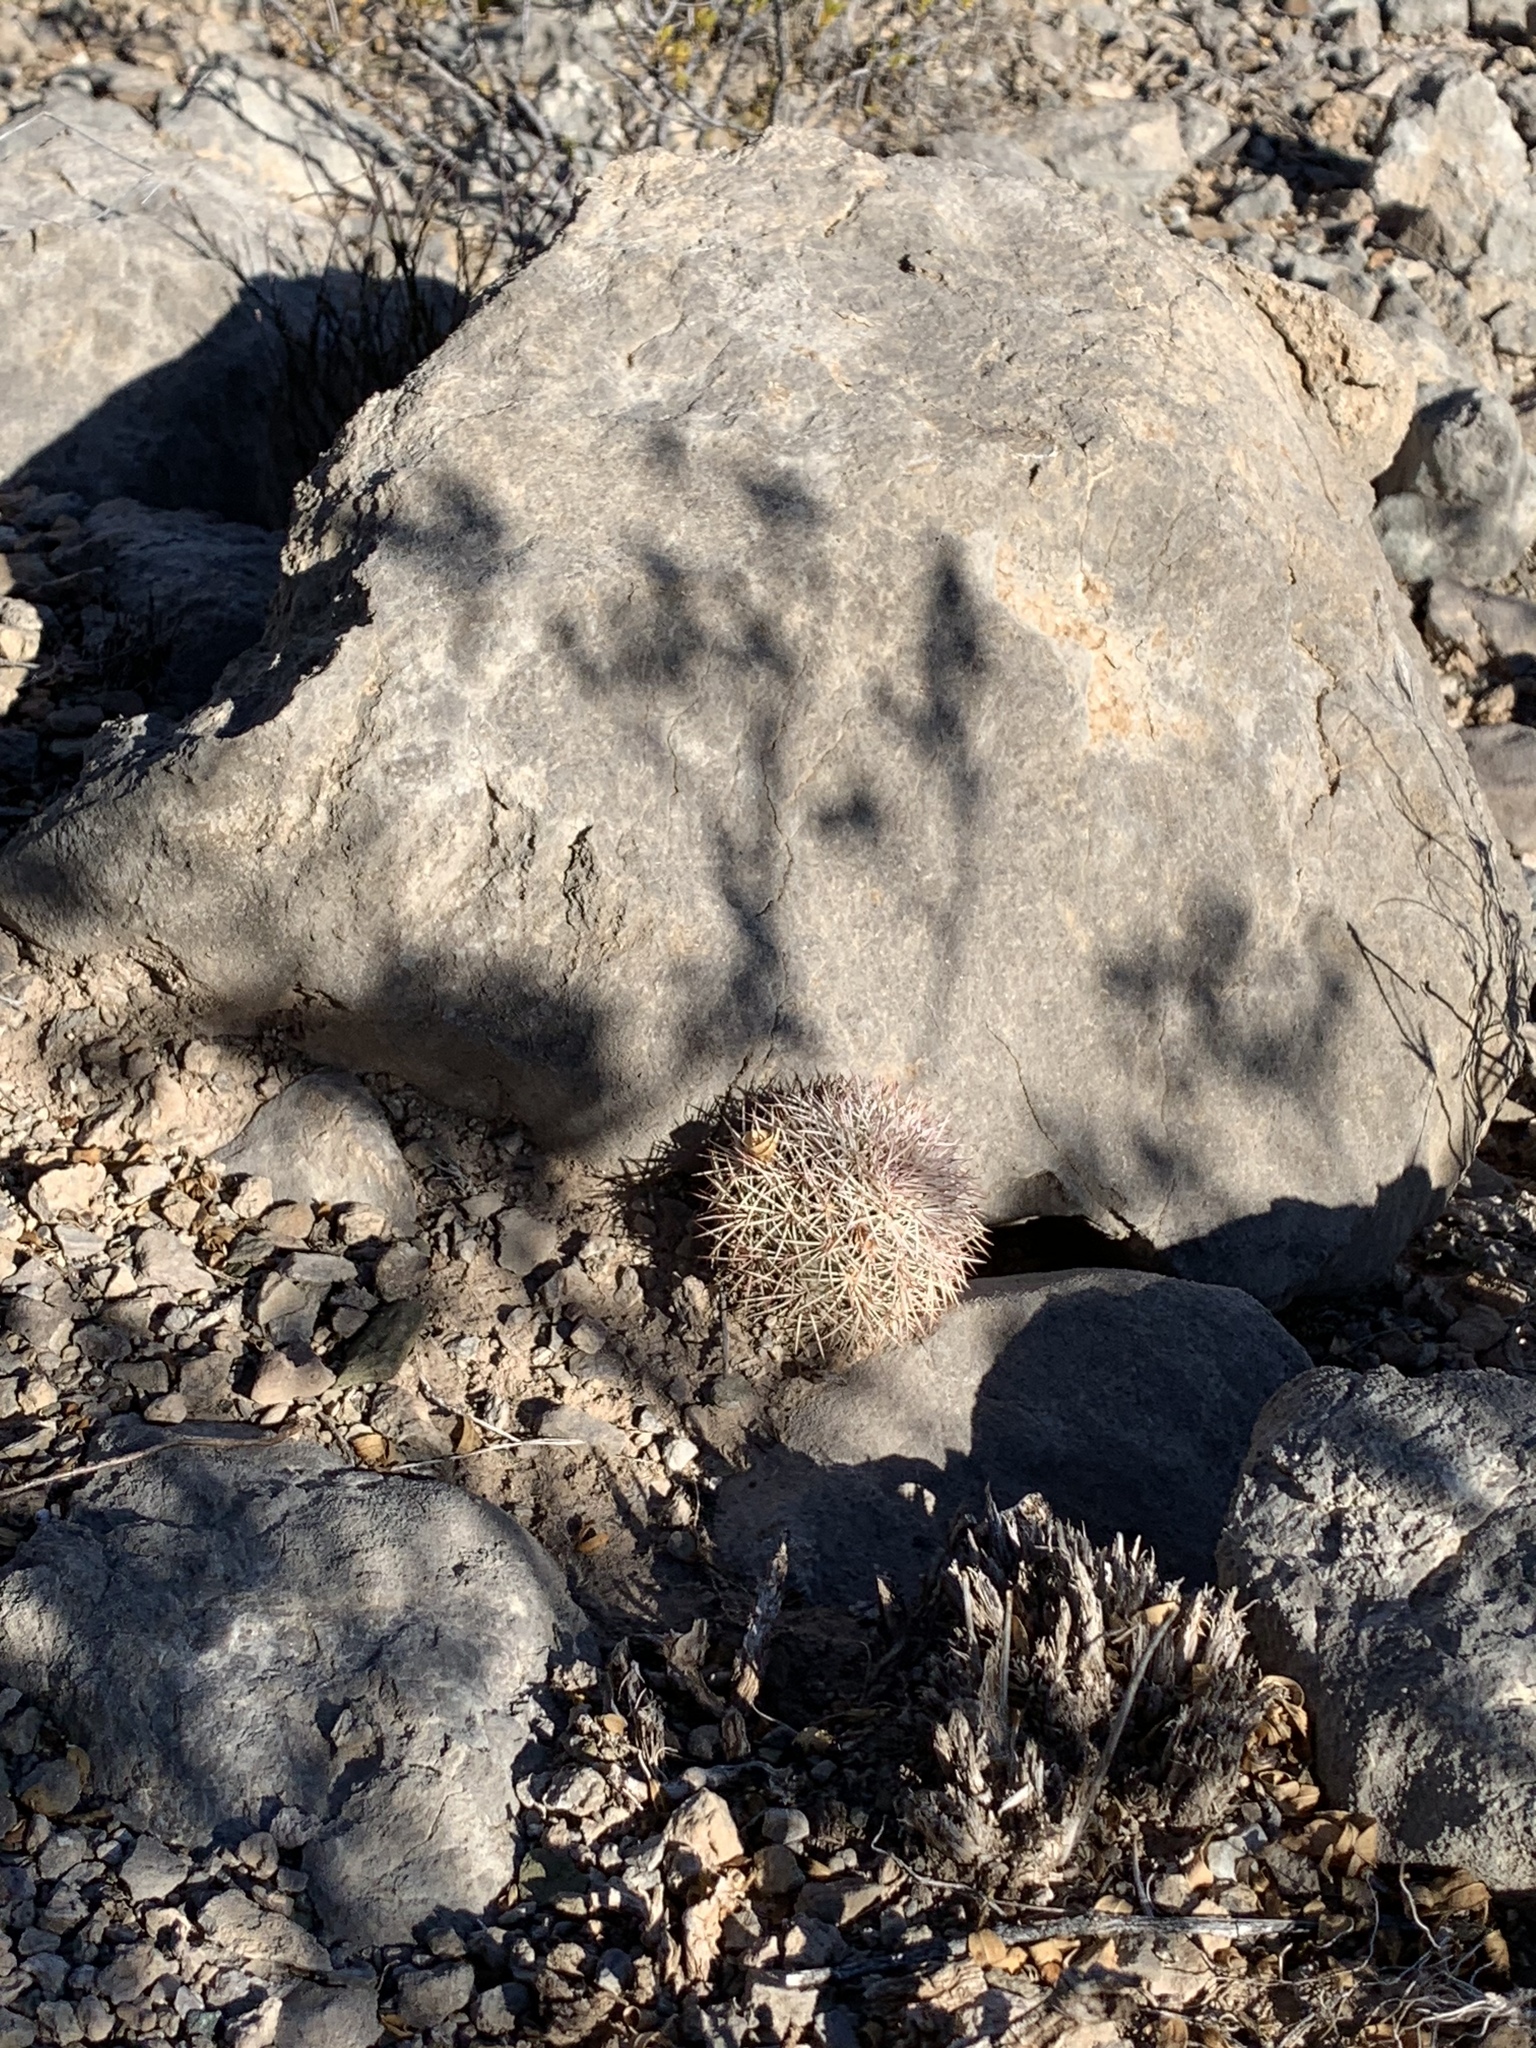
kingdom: Plantae
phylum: Tracheophyta
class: Magnoliopsida
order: Caryophyllales
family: Cactaceae
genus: Echinocereus
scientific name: Echinocereus dasyacanthus
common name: Spiny hedgehog cactus
